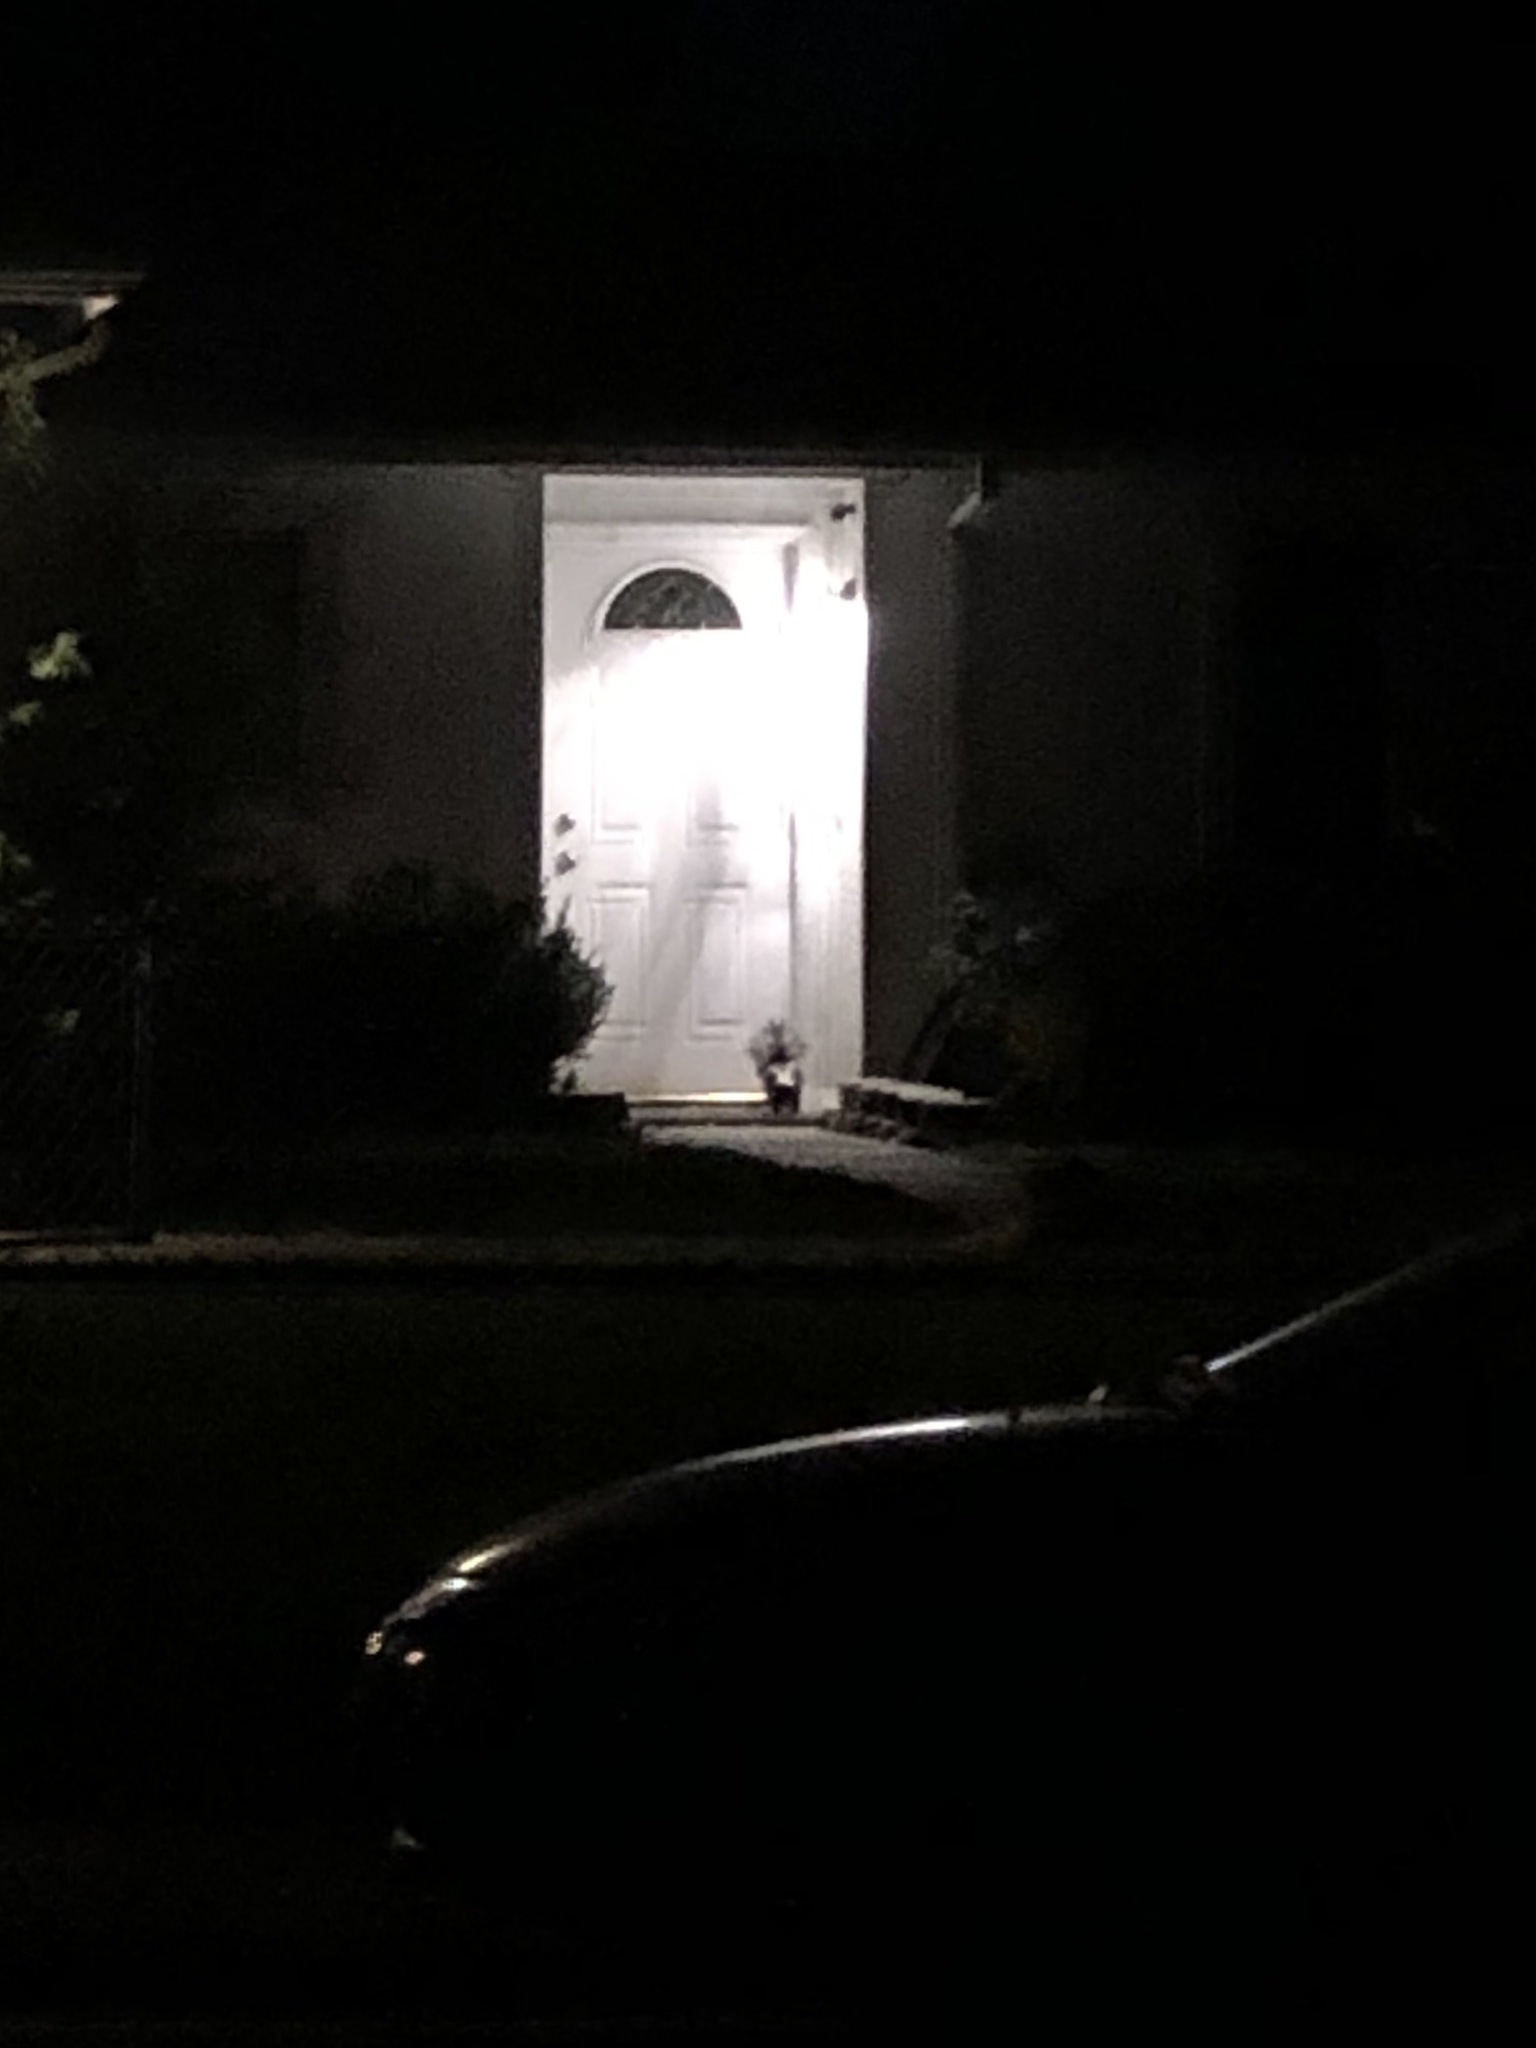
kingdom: Animalia
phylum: Chordata
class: Mammalia
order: Carnivora
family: Mephitidae
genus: Mephitis
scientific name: Mephitis mephitis
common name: Striped skunk
